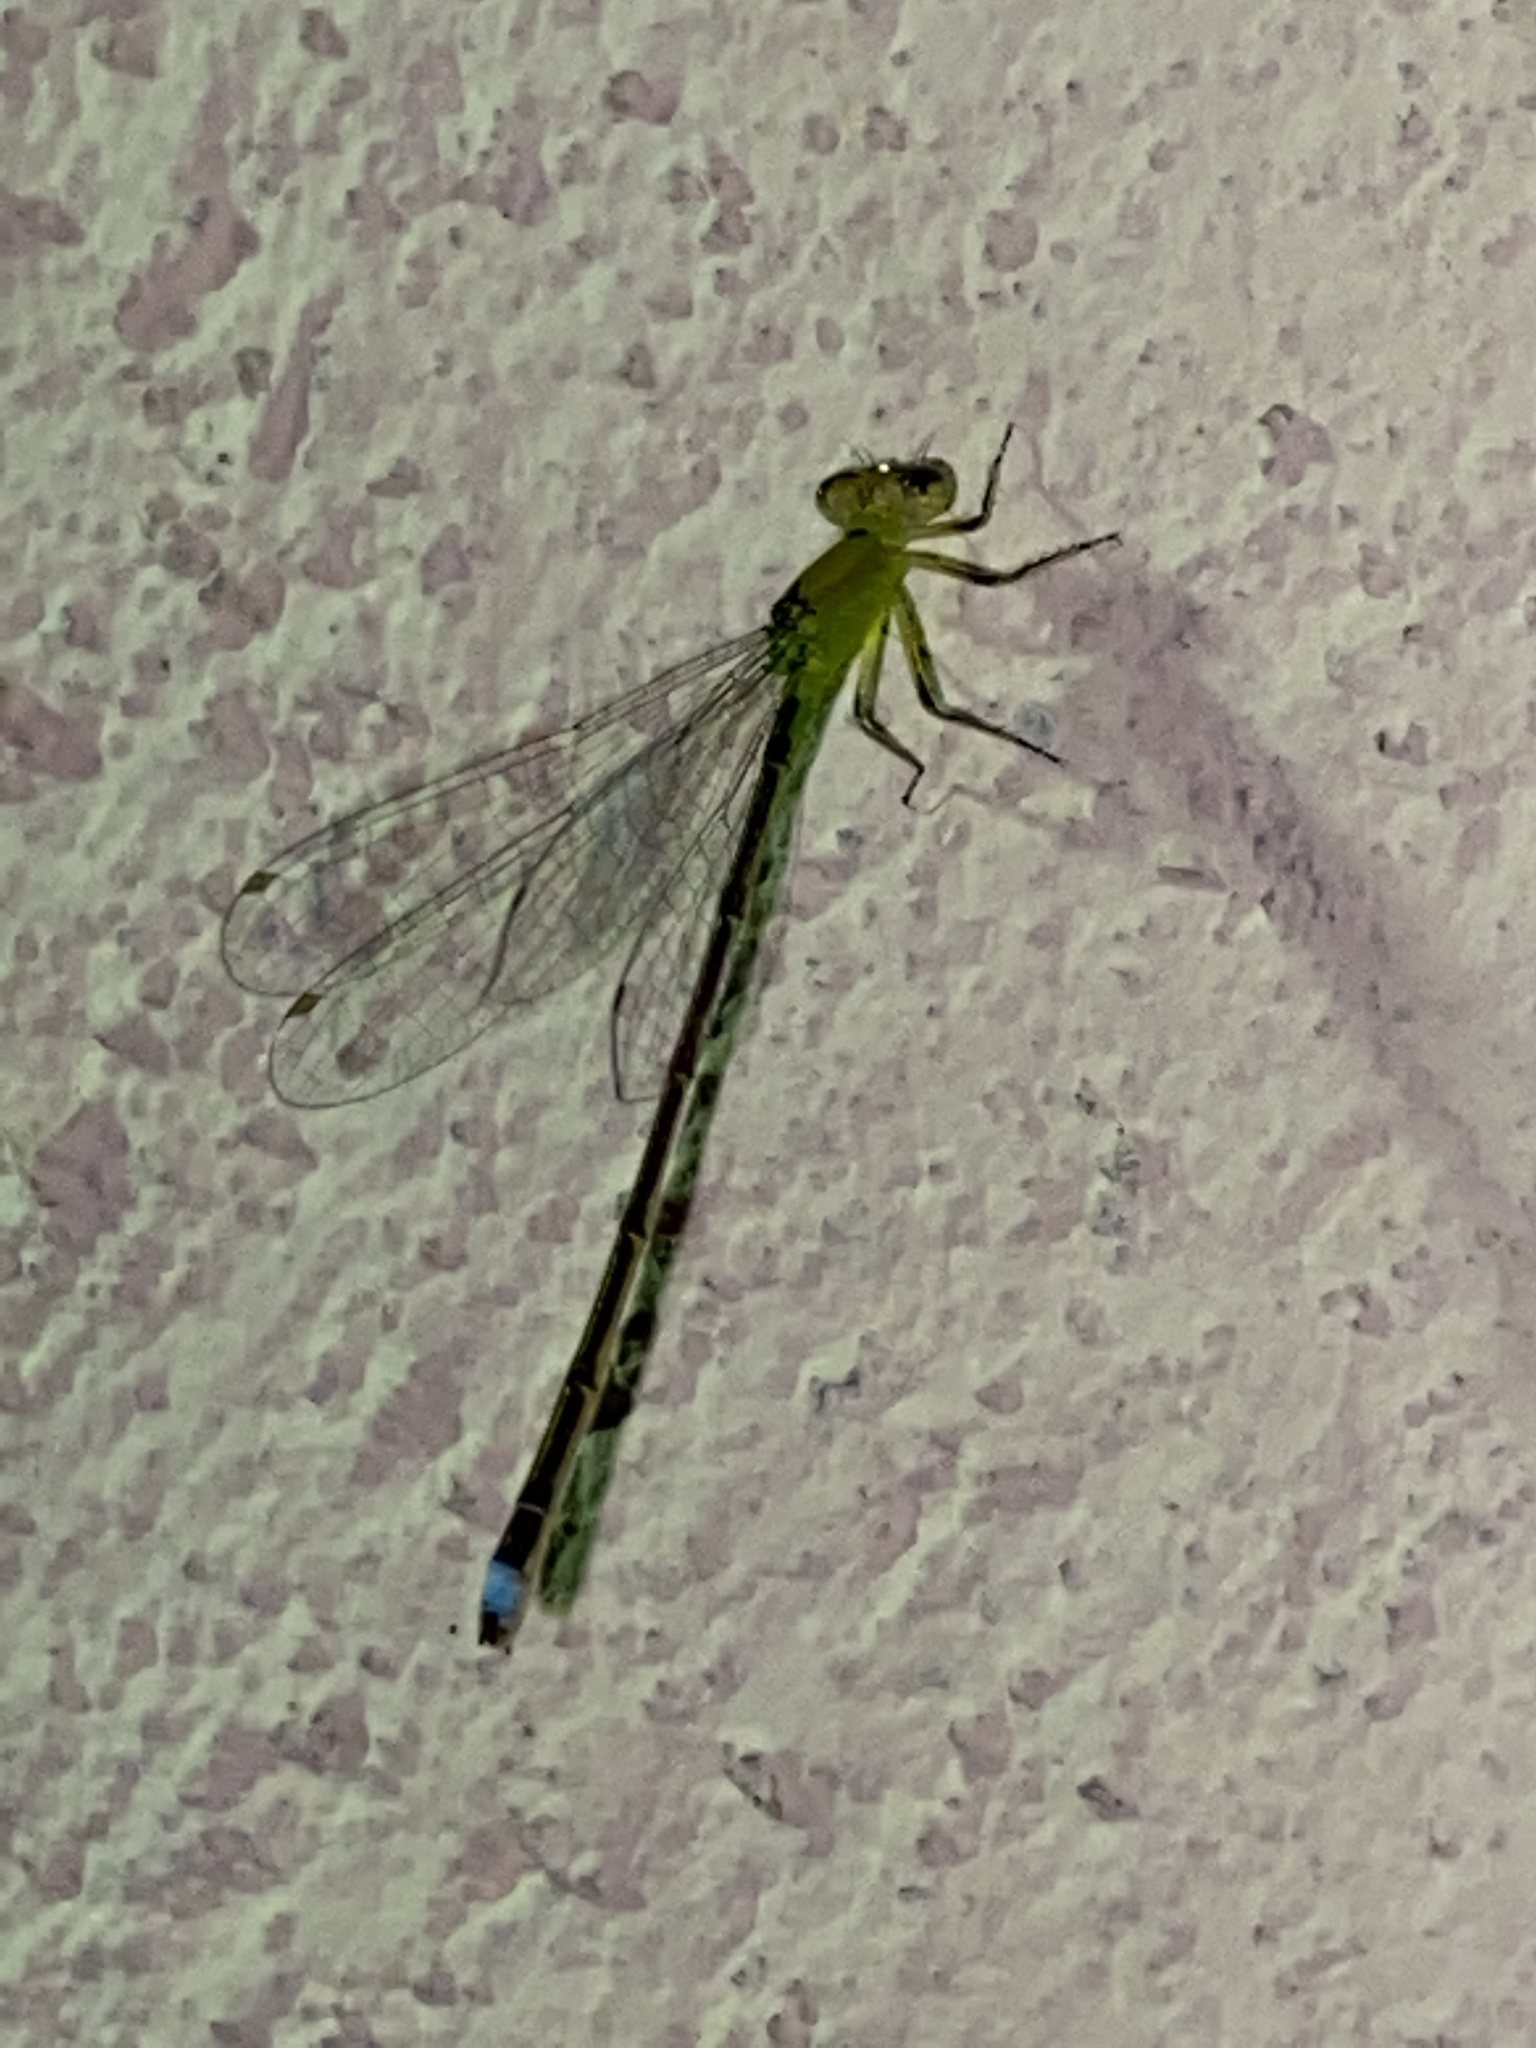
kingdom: Animalia
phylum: Arthropoda
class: Insecta
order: Odonata
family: Coenagrionidae
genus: Ischnura
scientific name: Ischnura capreolus
